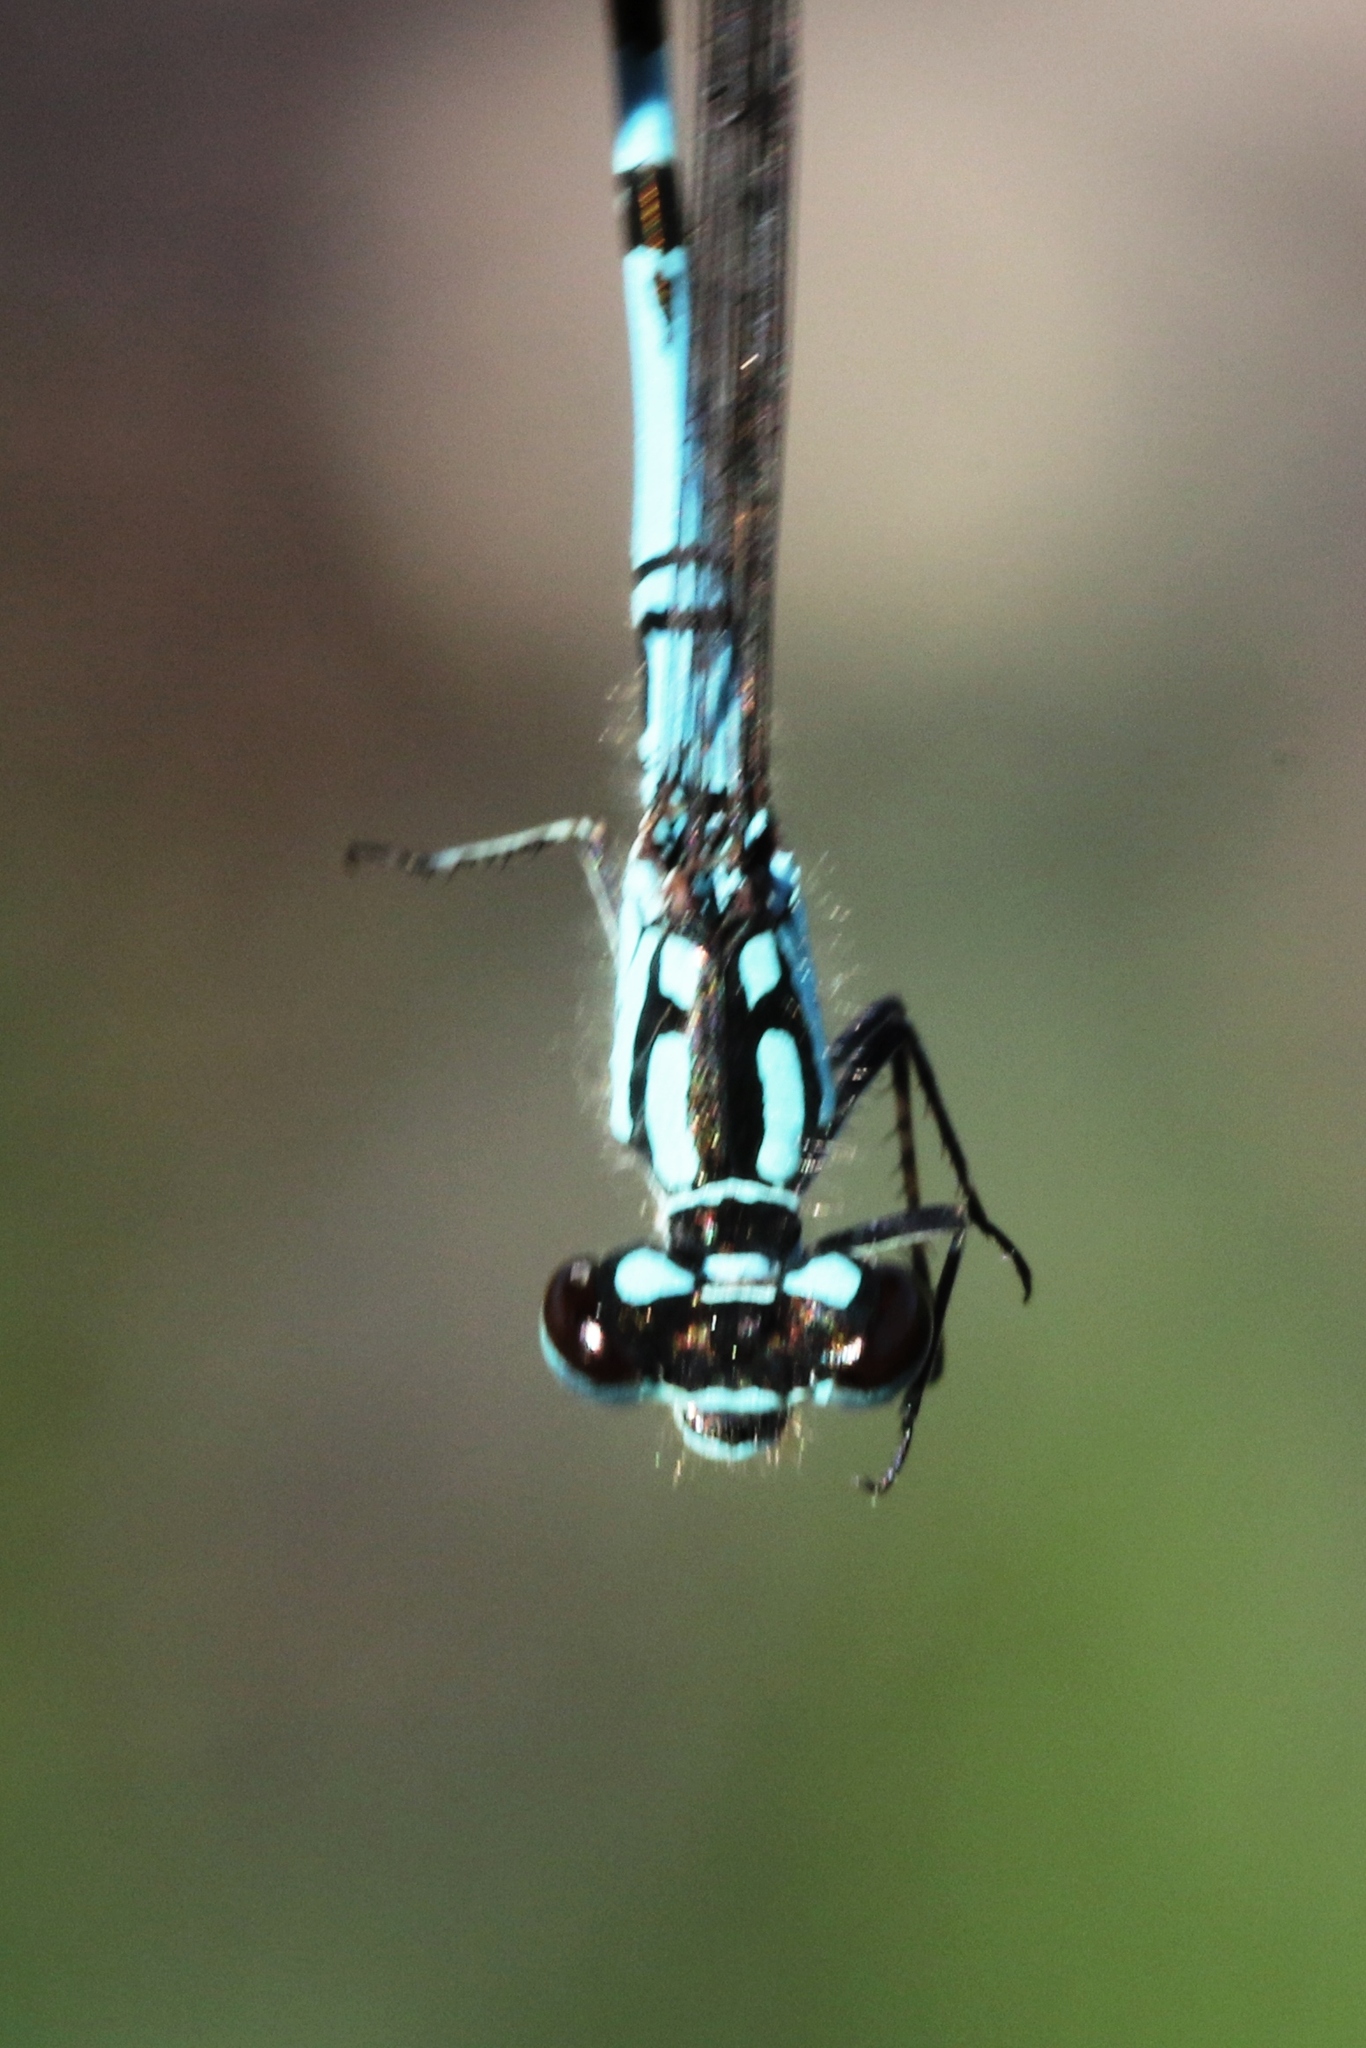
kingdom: Animalia
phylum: Arthropoda
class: Insecta
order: Odonata
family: Coenagrionidae
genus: Coenagrion
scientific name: Coenagrion interrogatum
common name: Subarctic bluet
